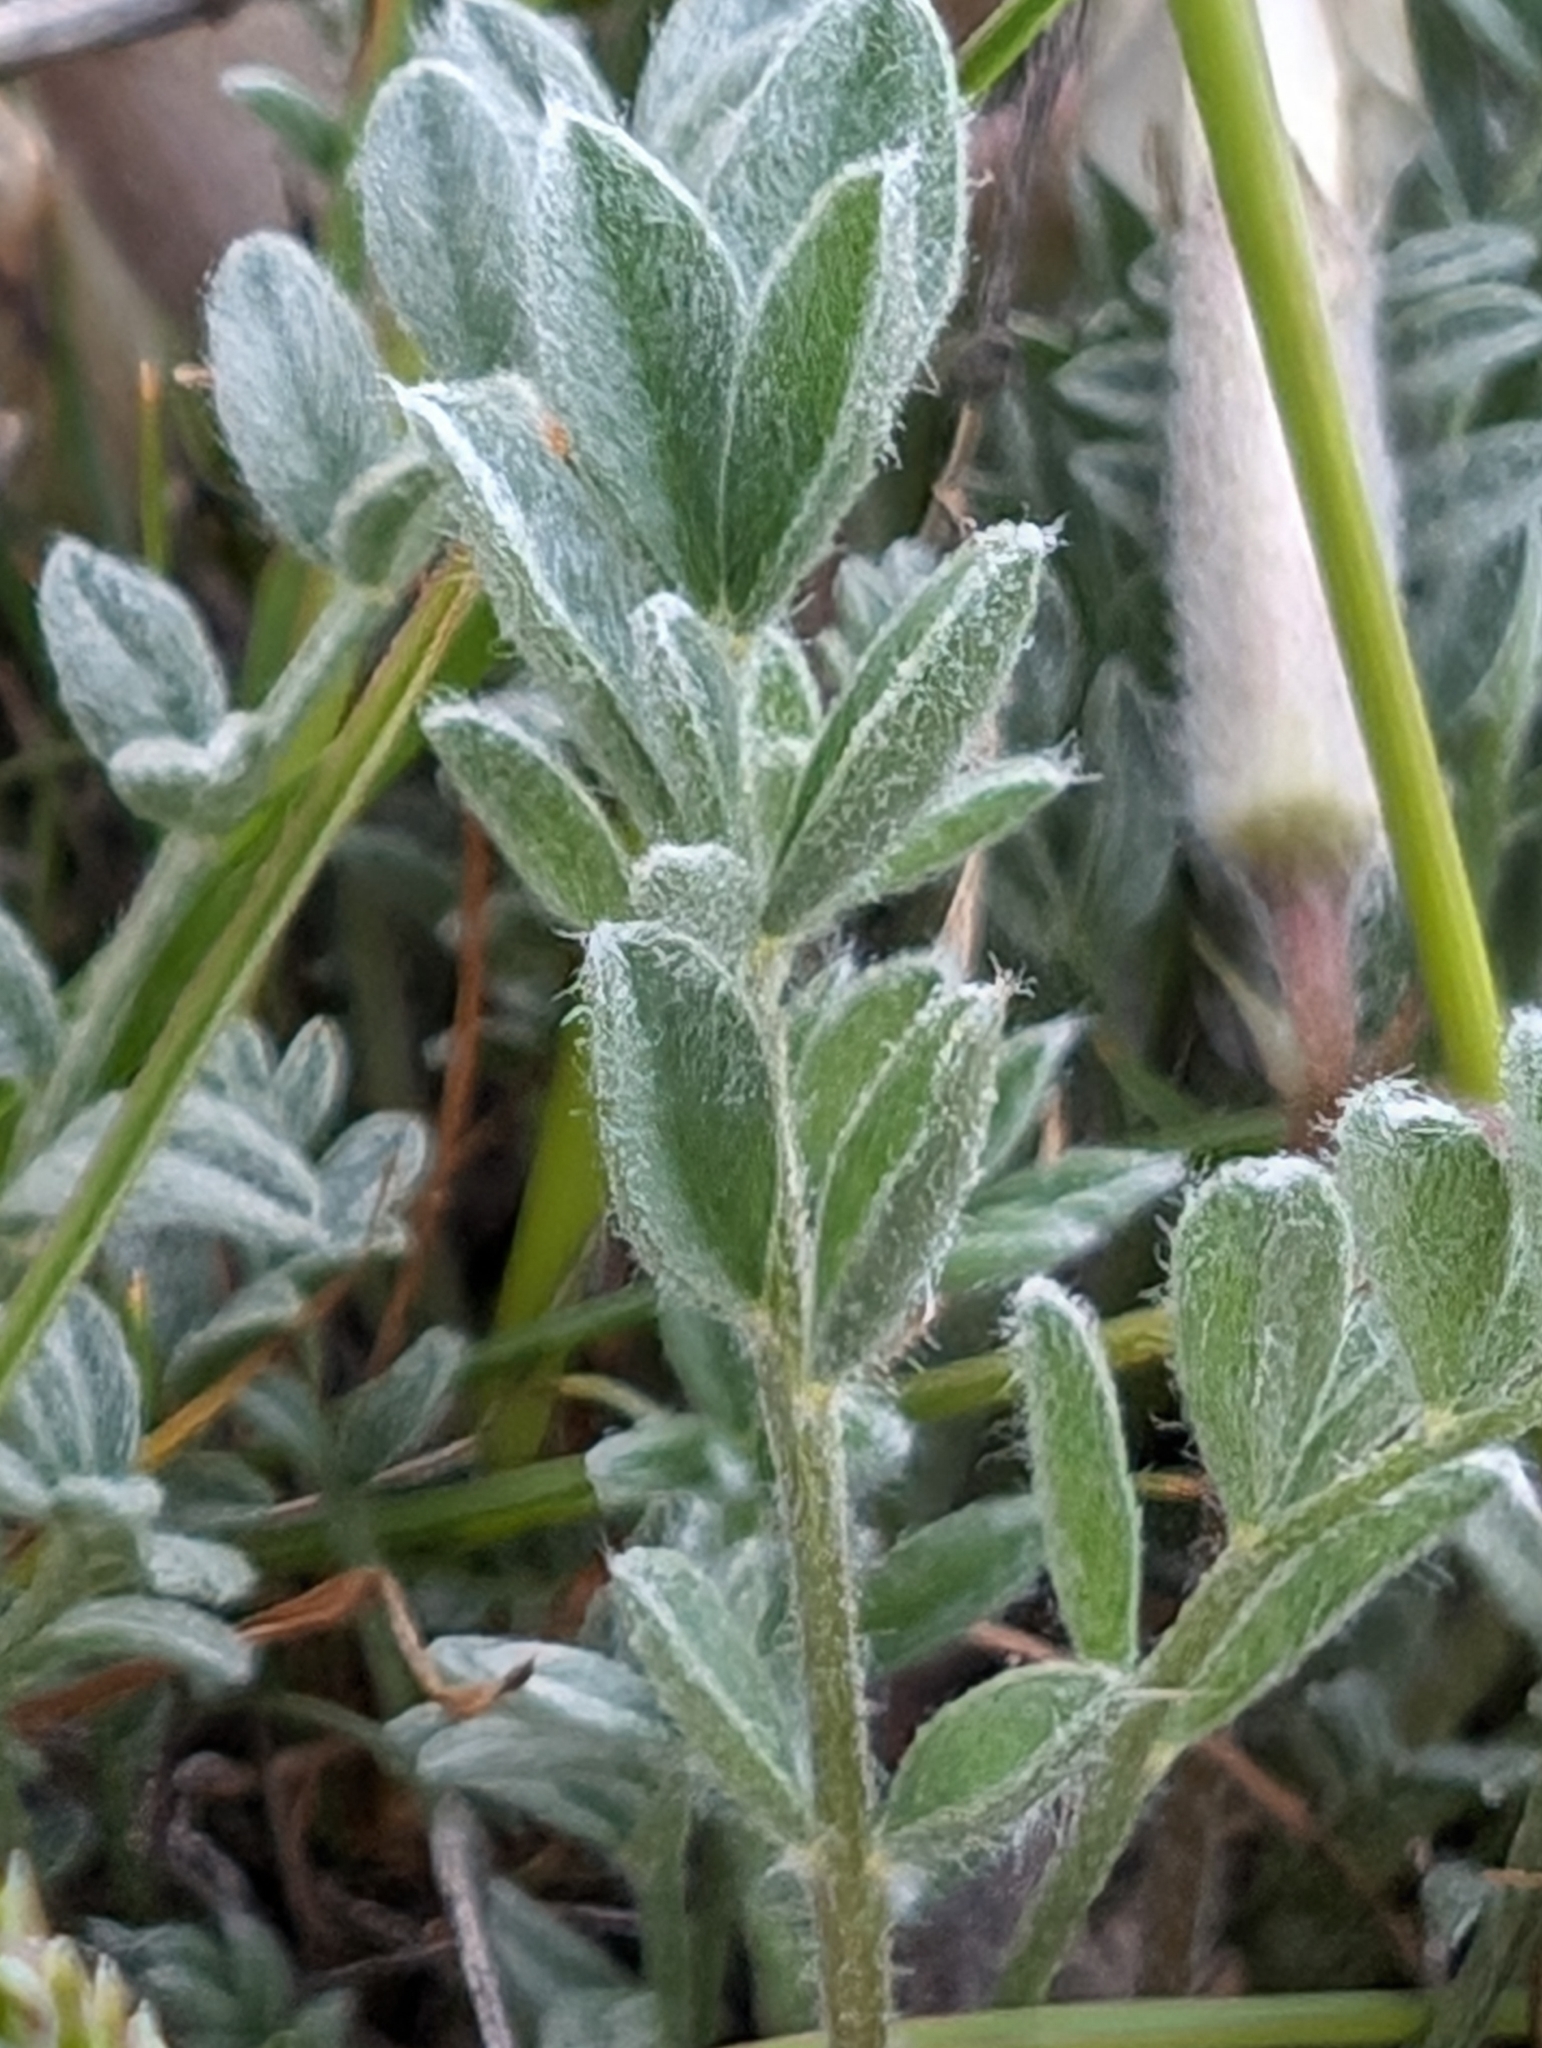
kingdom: Plantae
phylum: Tracheophyta
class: Magnoliopsida
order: Fabales
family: Fabaceae
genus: Astragalus
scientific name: Astragalus purshii
